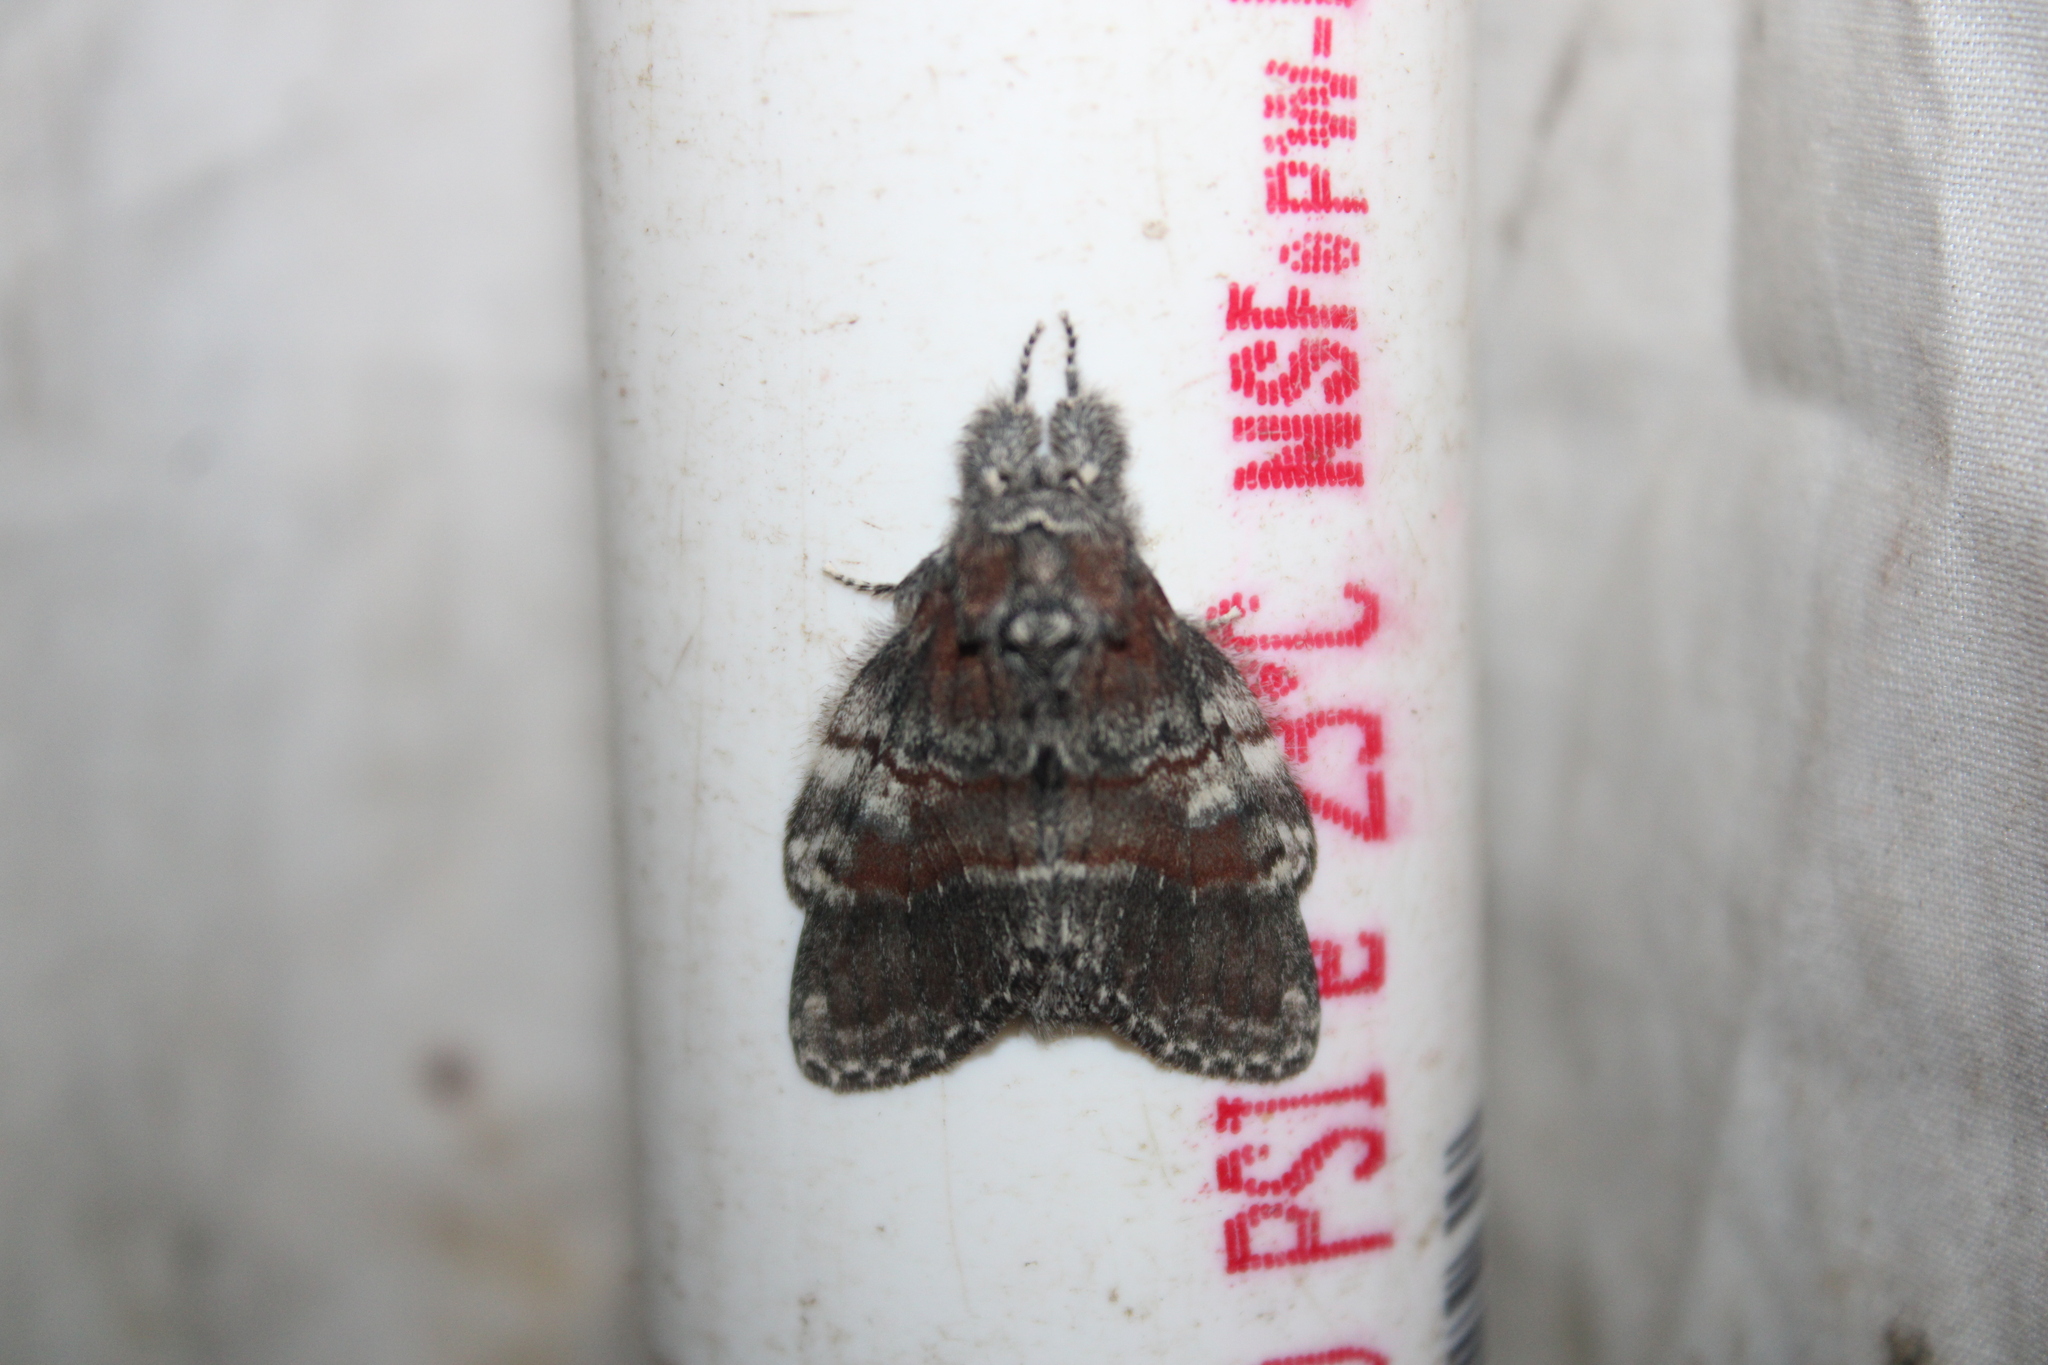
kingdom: Animalia
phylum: Arthropoda
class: Insecta
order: Lepidoptera
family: Notodontidae
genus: Peridea
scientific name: Peridea ferruginea
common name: Chocolate prominent
